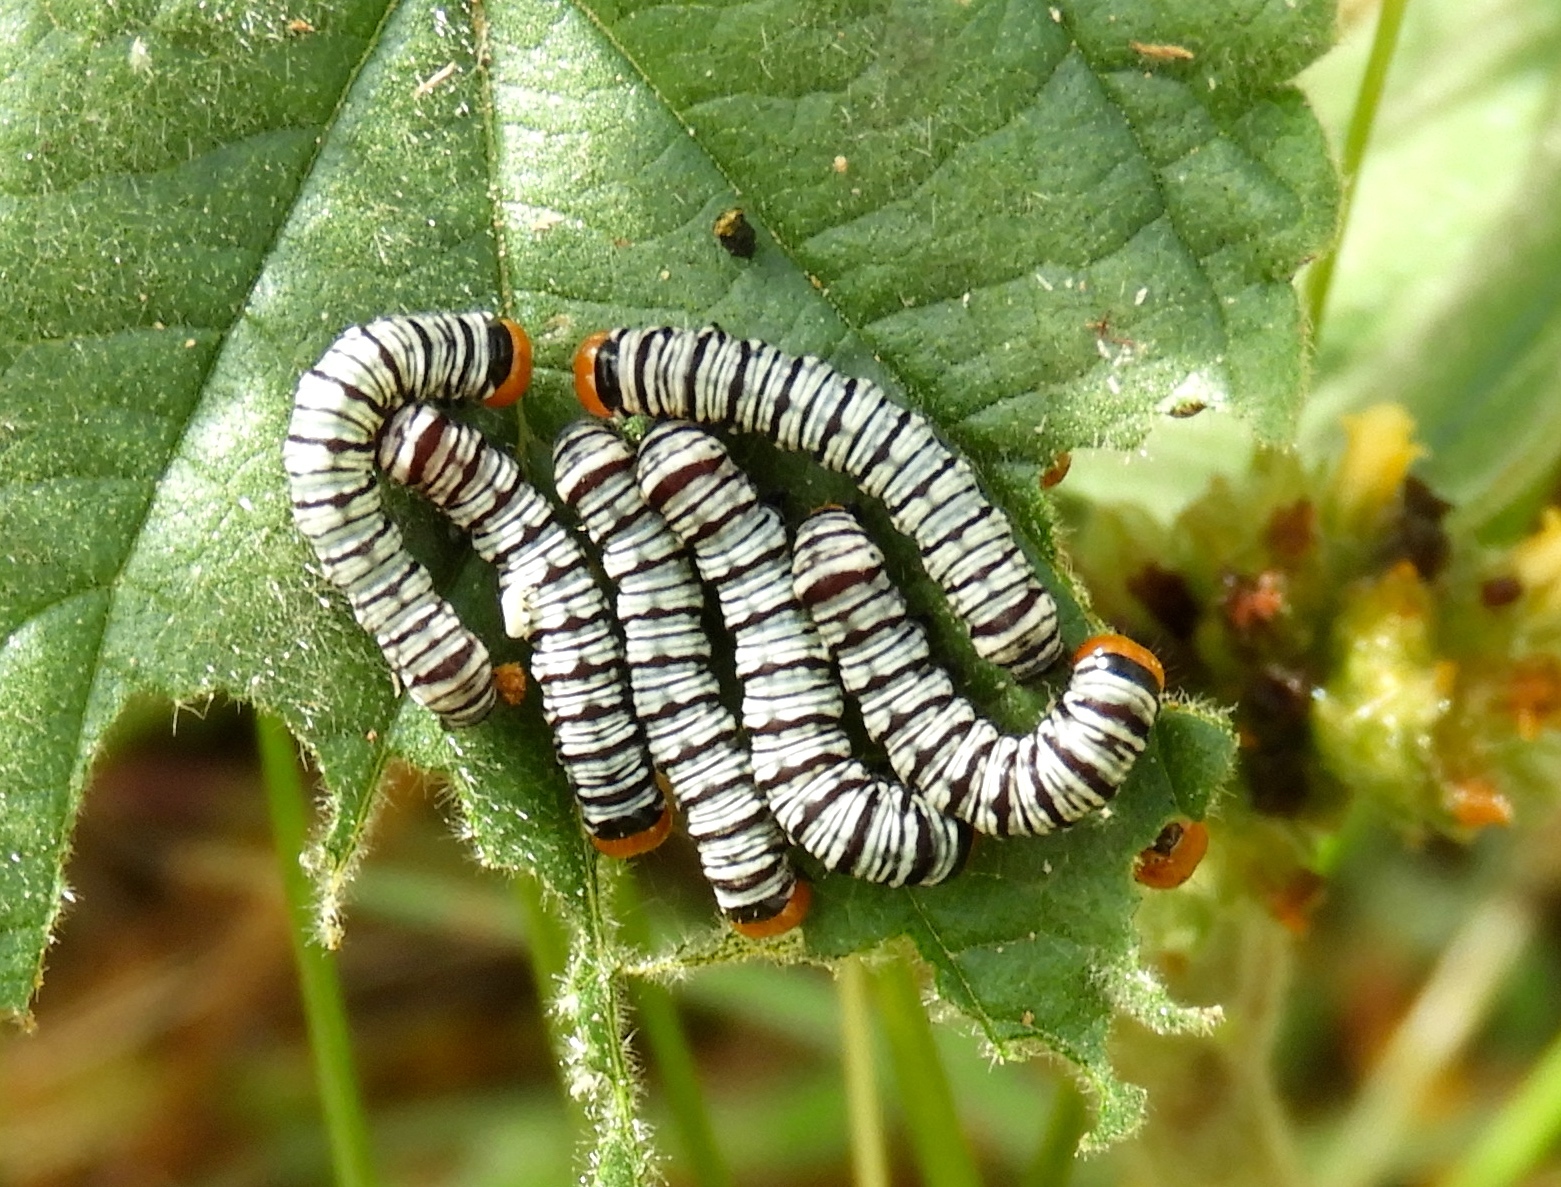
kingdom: Animalia
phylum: Arthropoda
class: Insecta
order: Lepidoptera
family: Erebidae
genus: Diphthera
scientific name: Diphthera festiva
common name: Hieroglyphic moth
